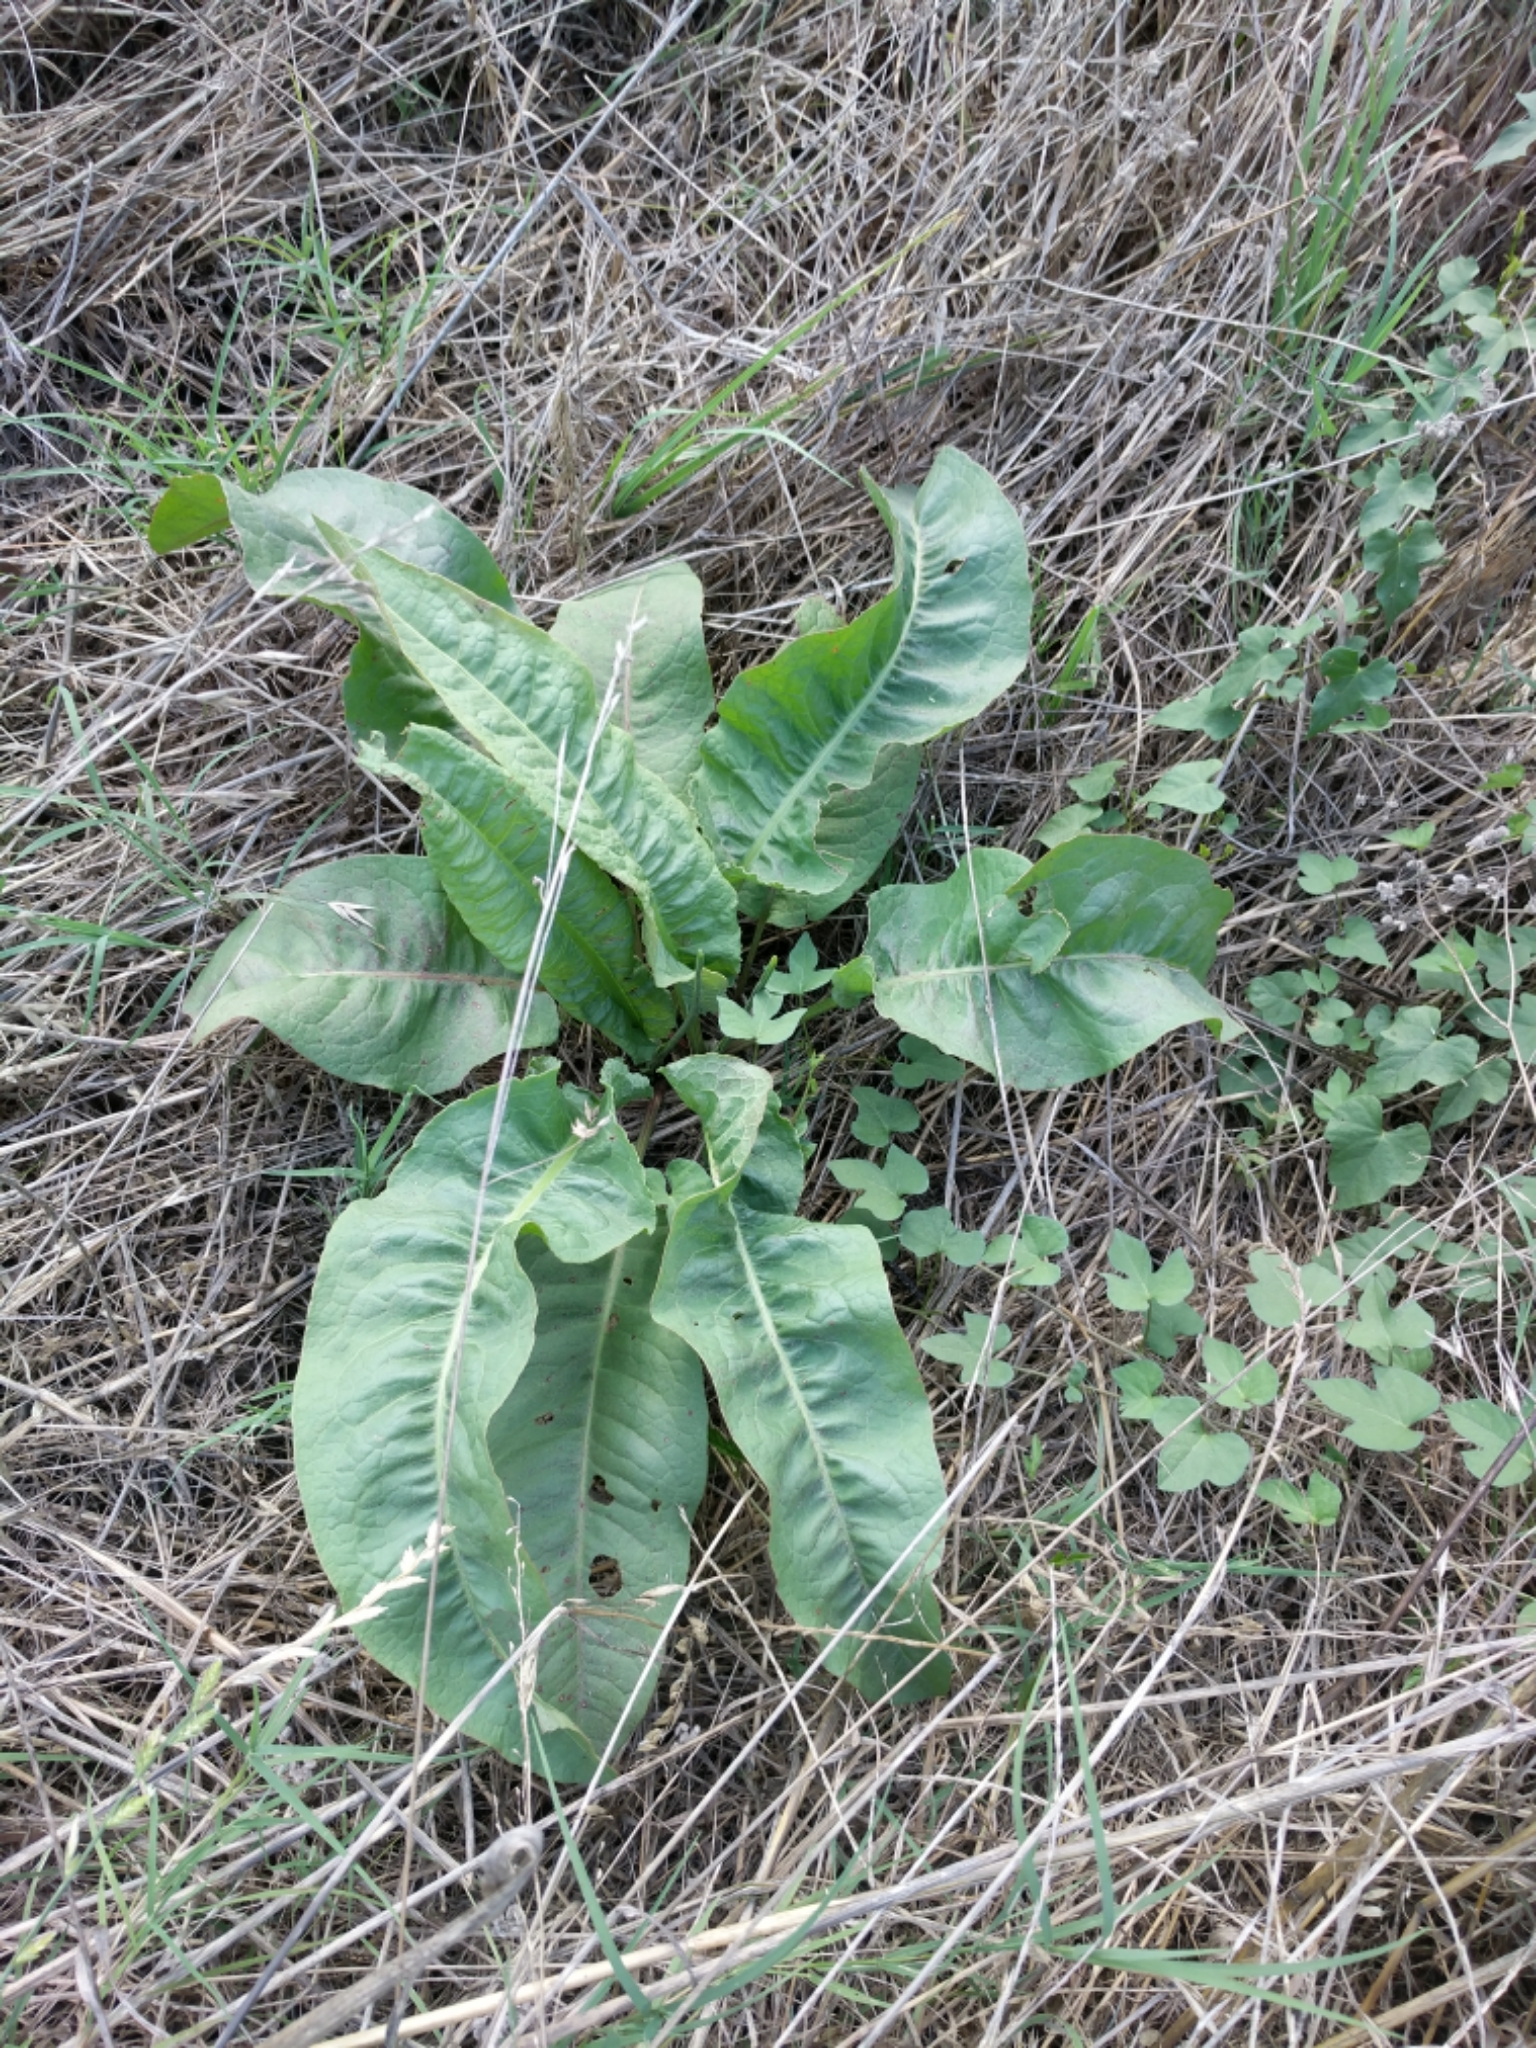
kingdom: Plantae
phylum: Tracheophyta
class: Magnoliopsida
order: Caryophyllales
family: Polygonaceae
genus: Rumex
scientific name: Rumex crispus
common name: Curled dock
